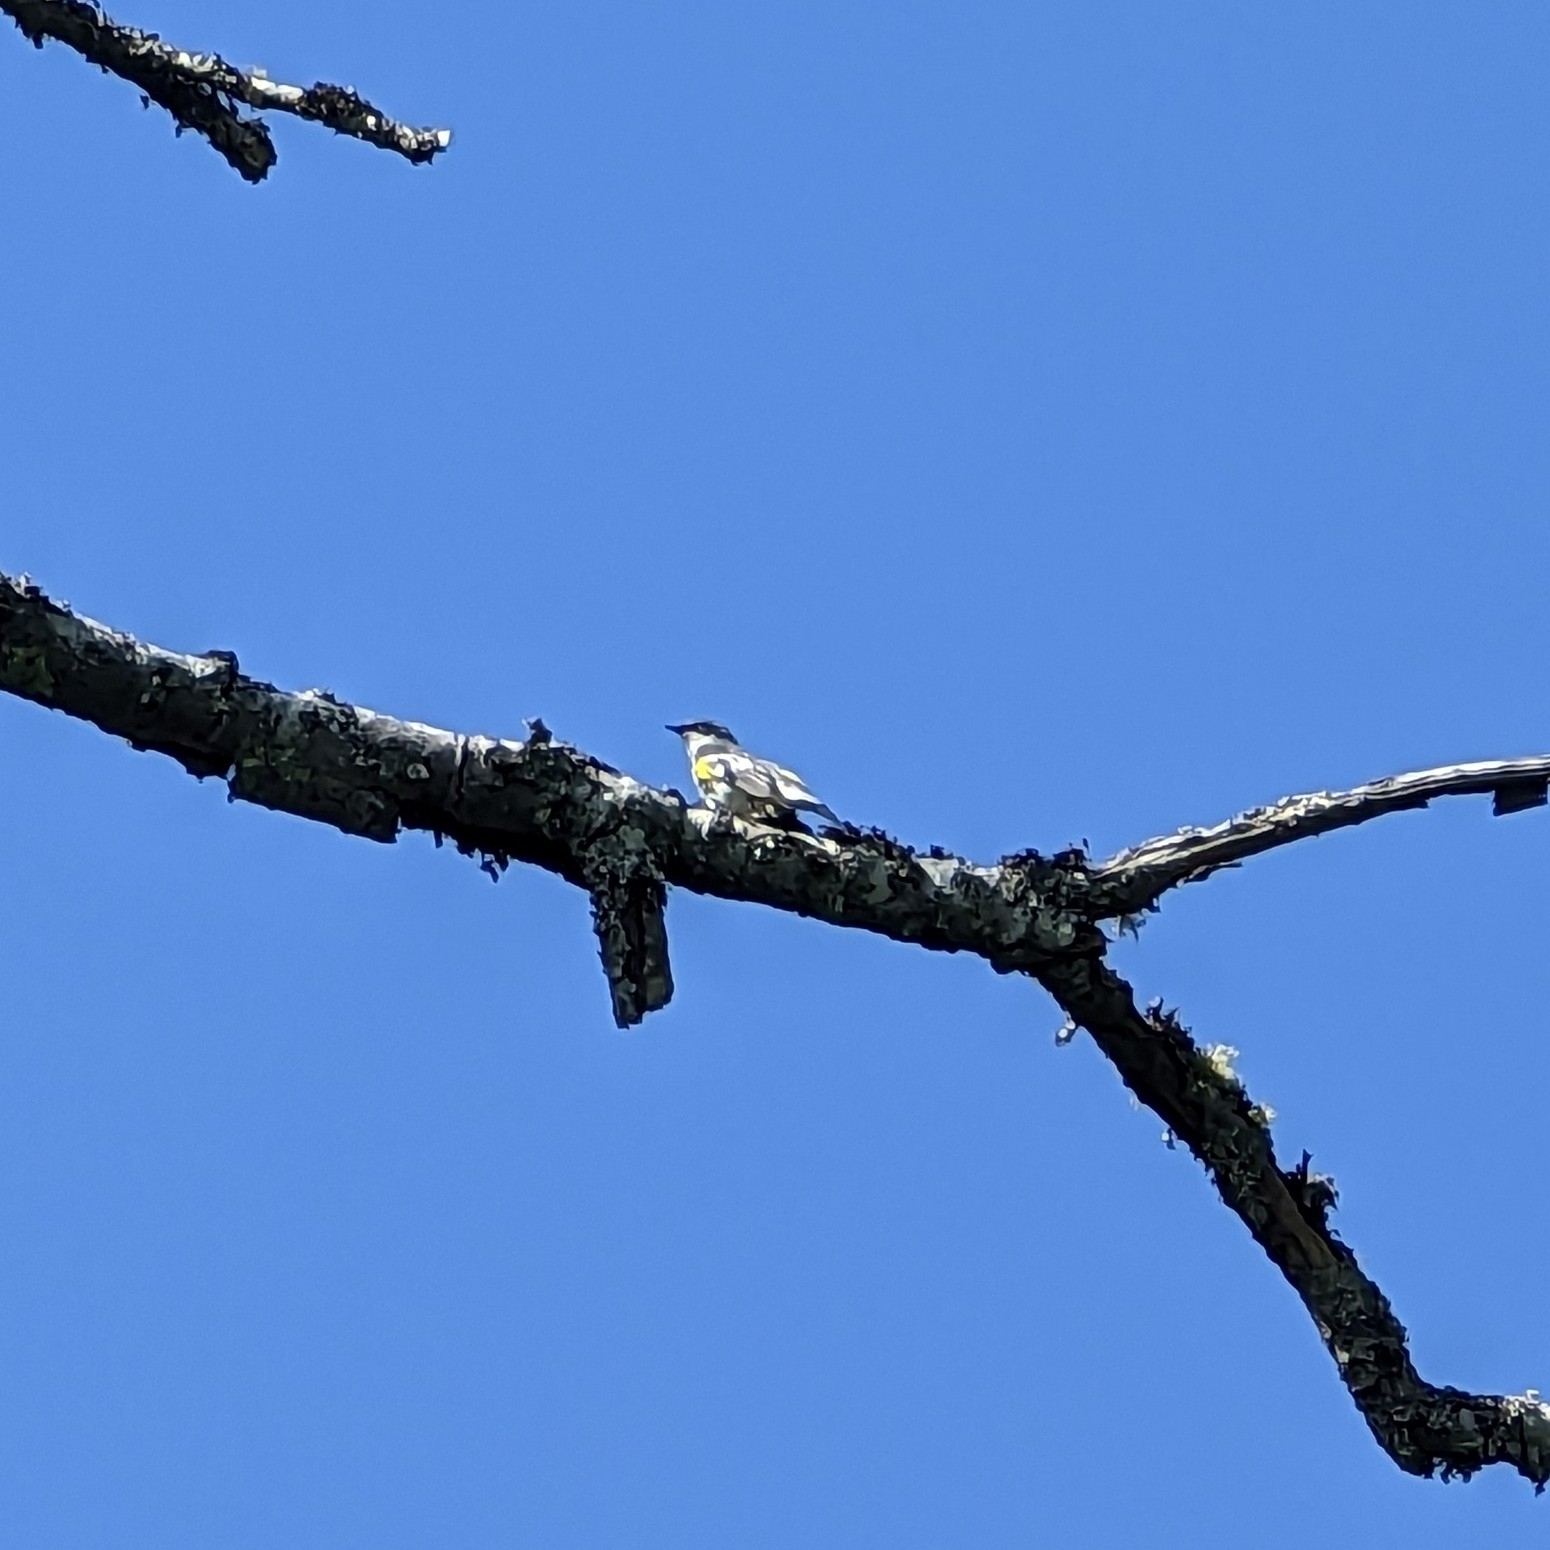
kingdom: Animalia
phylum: Chordata
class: Aves
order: Passeriformes
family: Parulidae
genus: Setophaga
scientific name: Setophaga coronata
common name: Myrtle warbler
